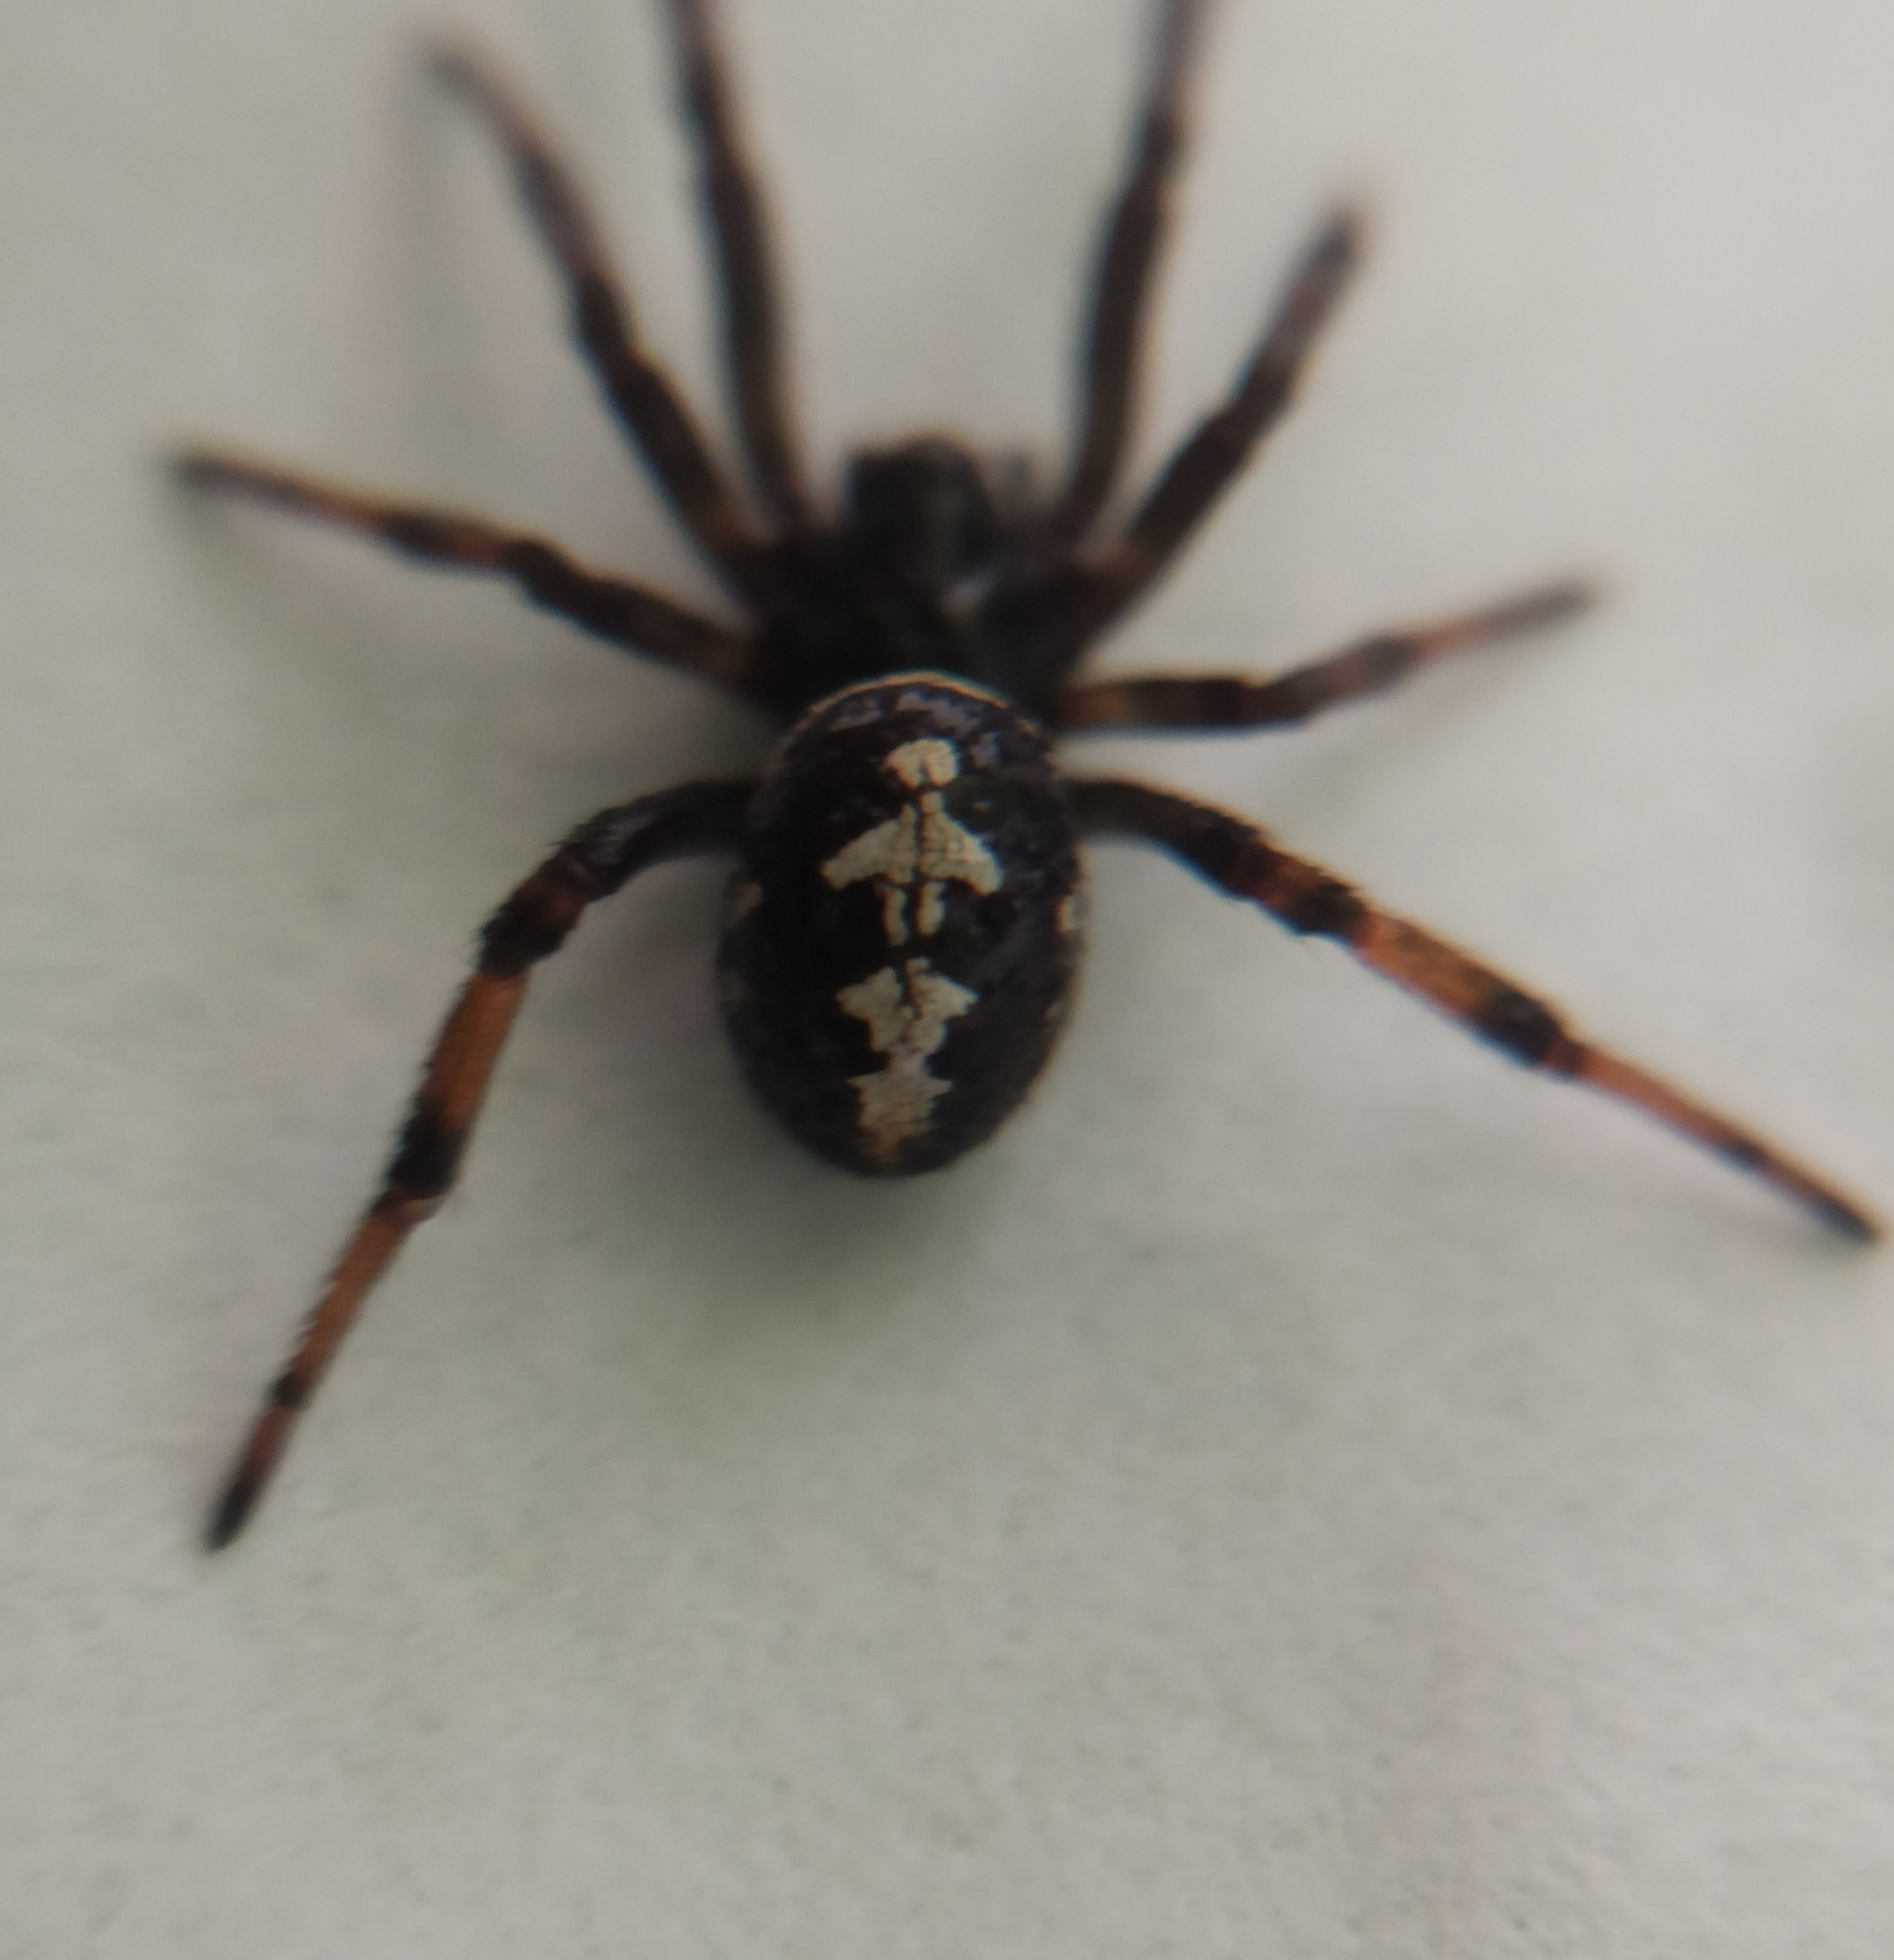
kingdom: Animalia
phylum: Arthropoda
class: Arachnida
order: Araneae
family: Theridiidae
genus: Steatoda
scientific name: Steatoda paykulliana
